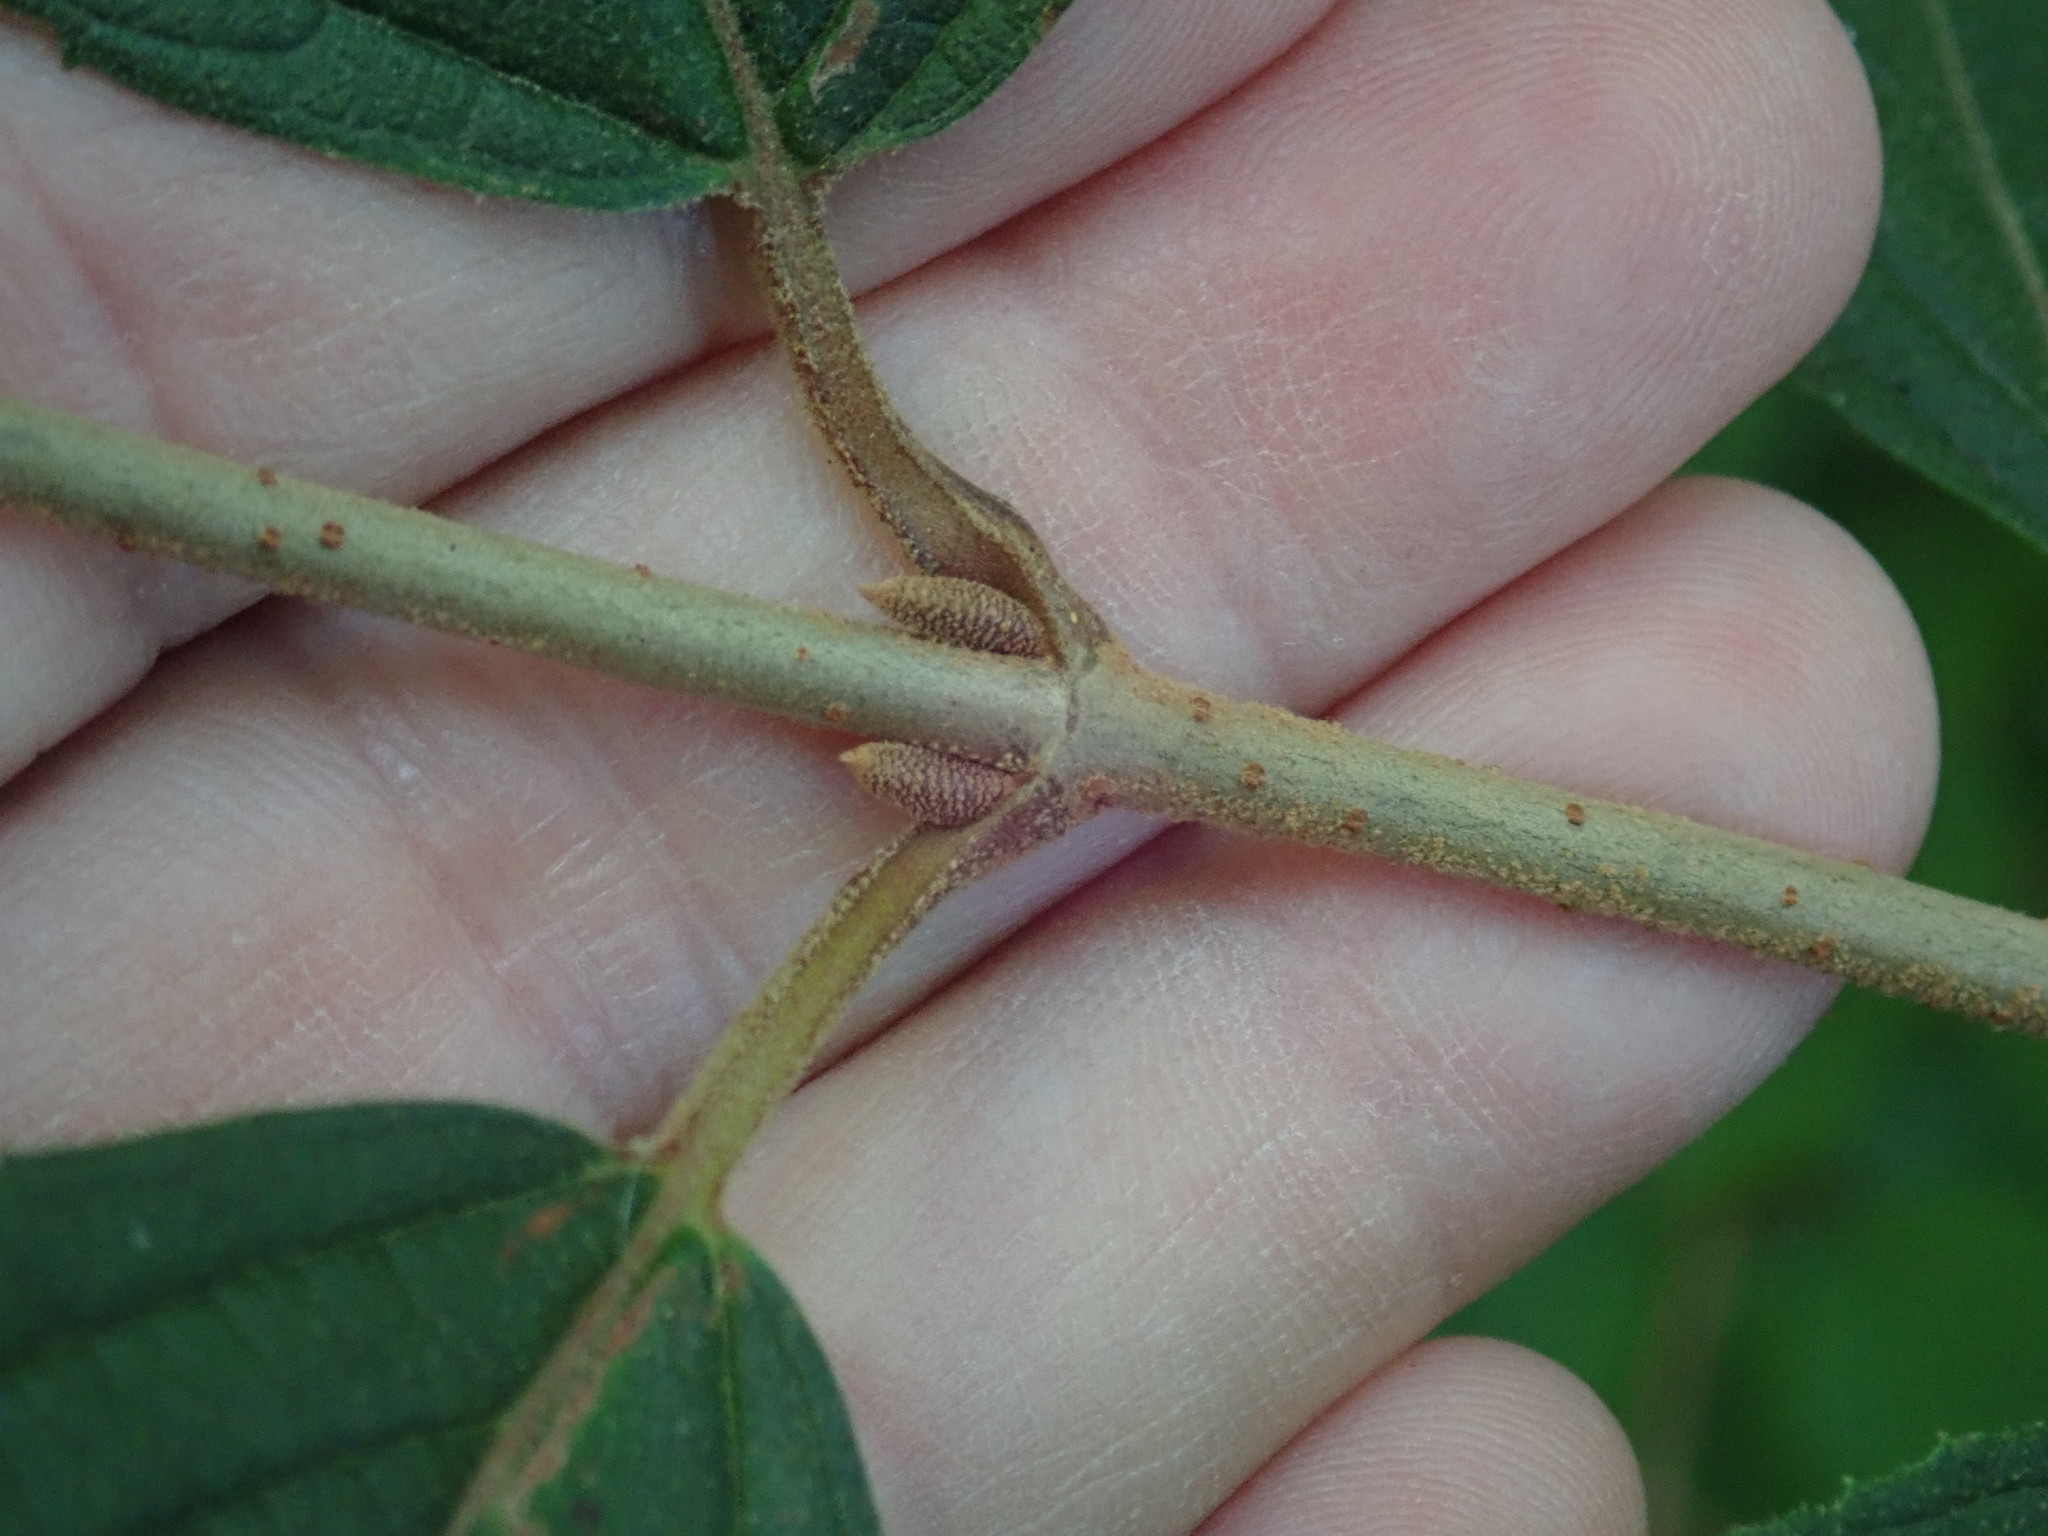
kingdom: Plantae
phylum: Tracheophyta
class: Magnoliopsida
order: Dipsacales
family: Viburnaceae
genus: Viburnum
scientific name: Viburnum plicatum
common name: Japanese snowball
